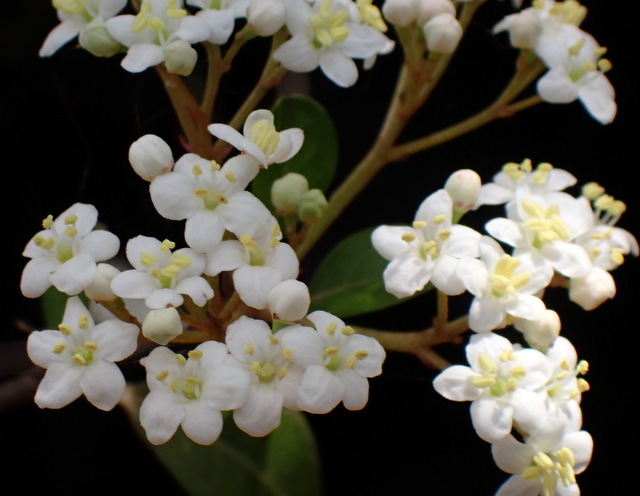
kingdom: Plantae
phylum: Tracheophyta
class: Magnoliopsida
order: Dipsacales
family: Viburnaceae
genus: Viburnum
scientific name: Viburnum obovatum
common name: Walter's viburnum
